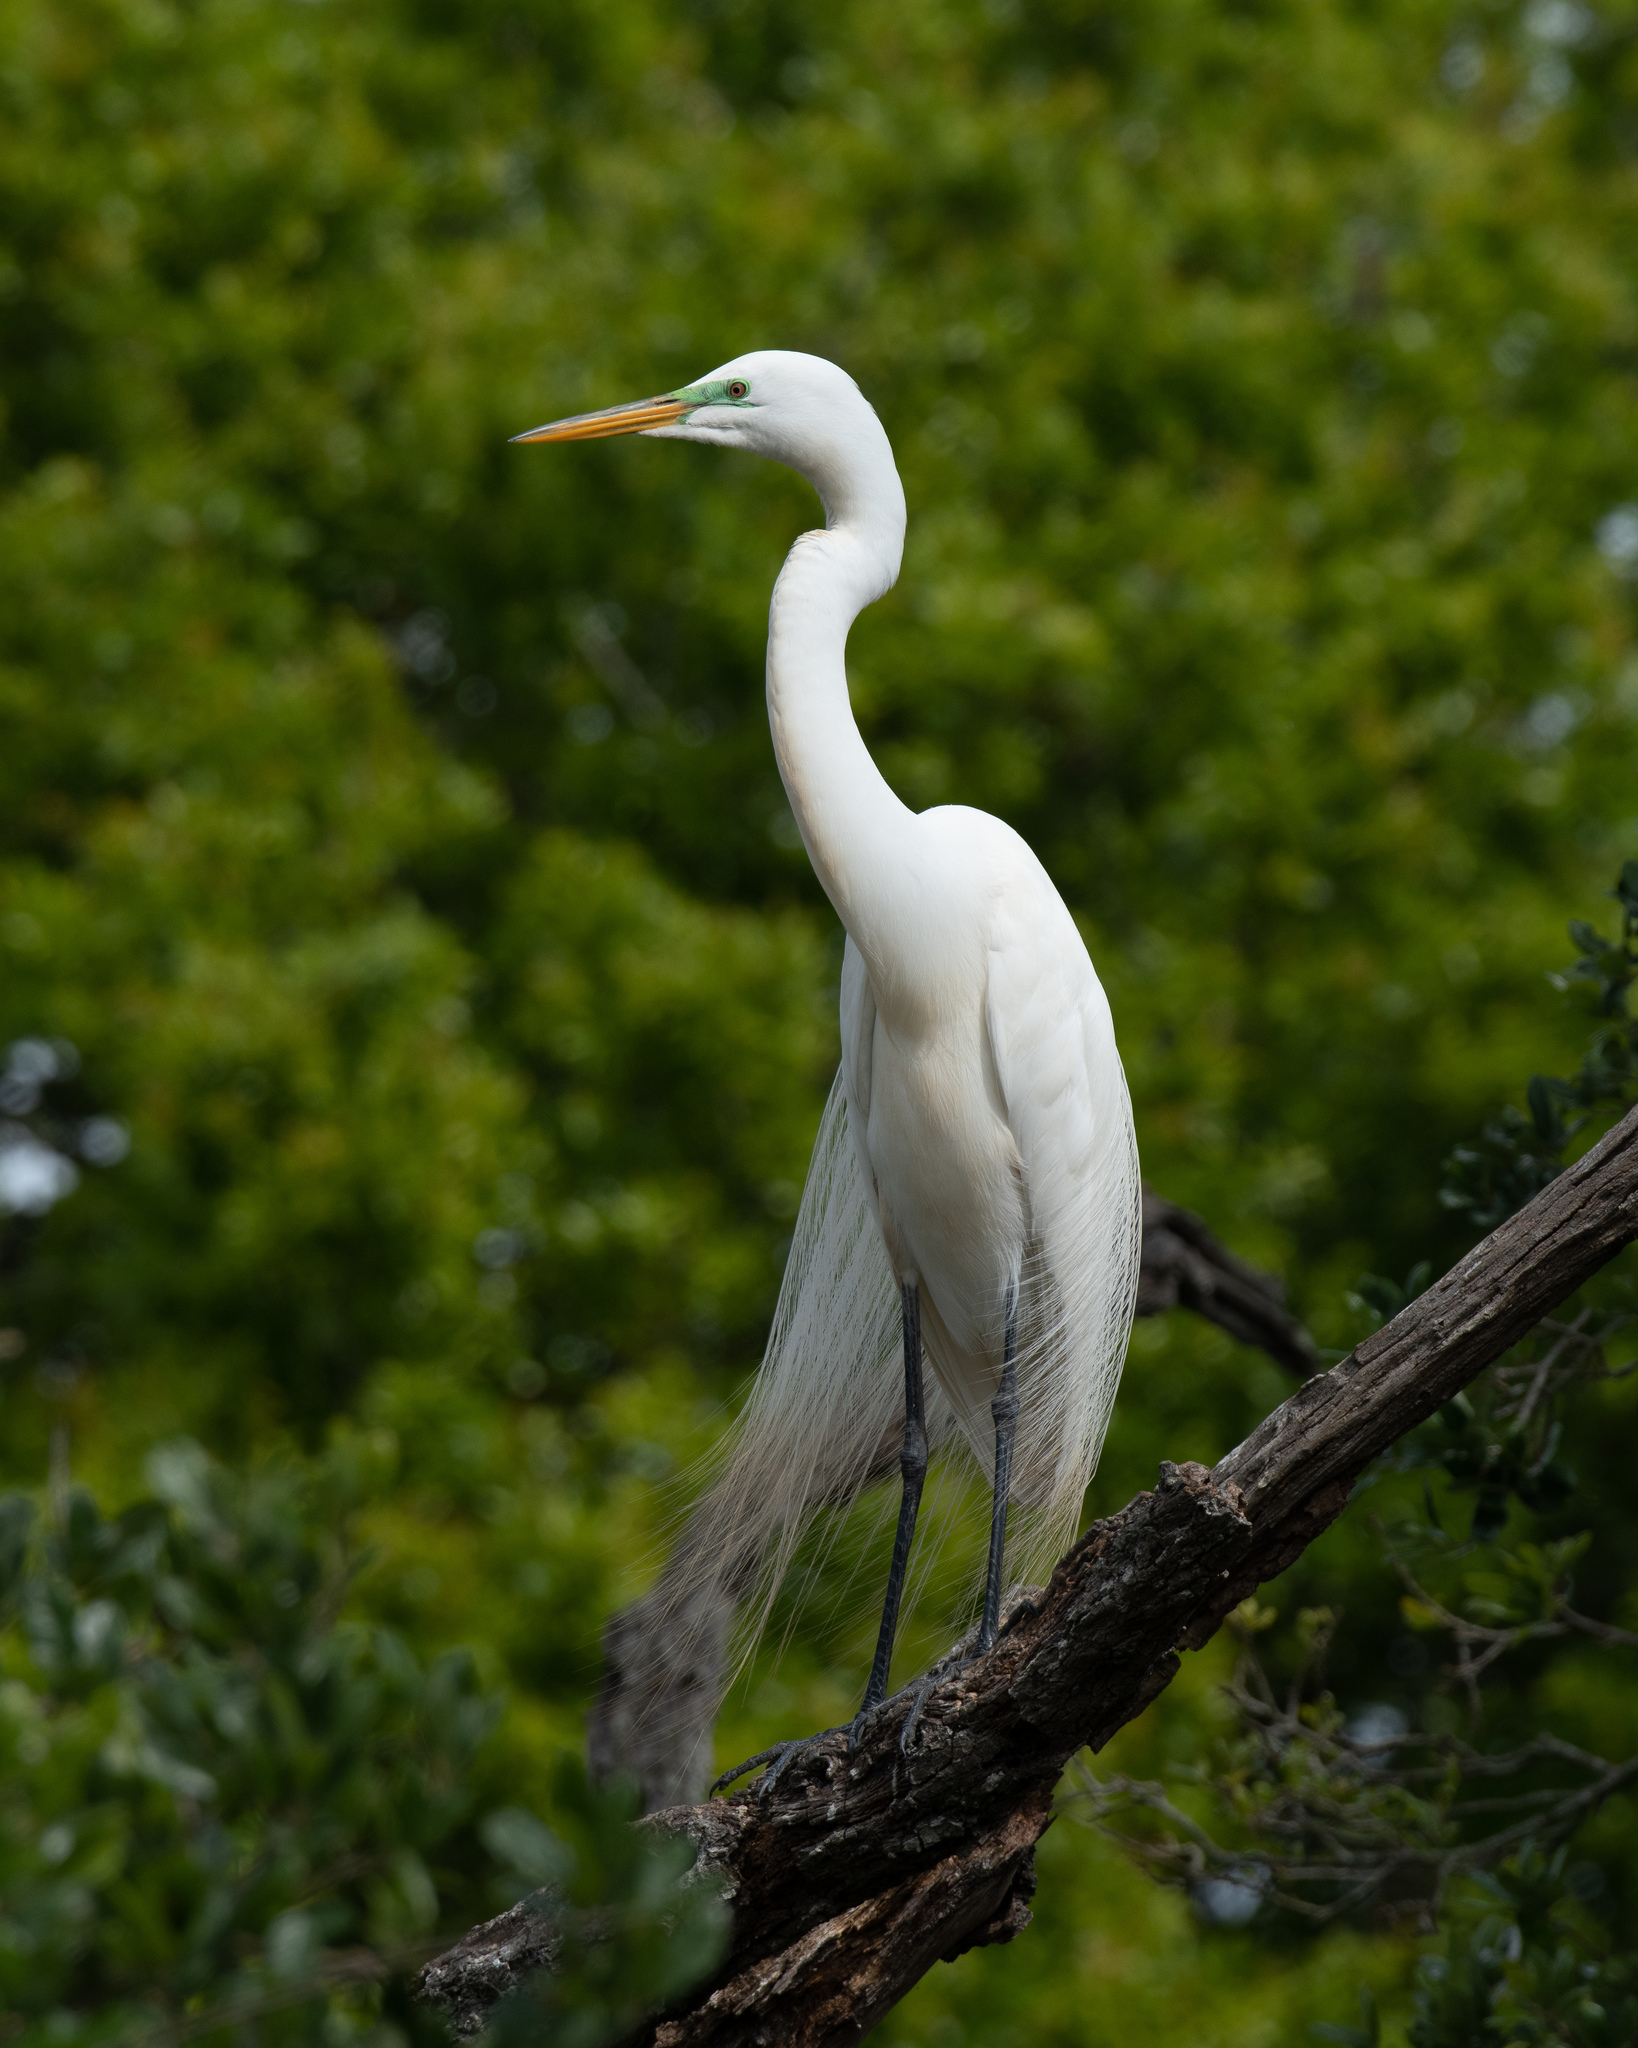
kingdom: Animalia
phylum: Chordata
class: Aves
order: Pelecaniformes
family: Ardeidae
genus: Ardea
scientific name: Ardea alba
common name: Great egret
